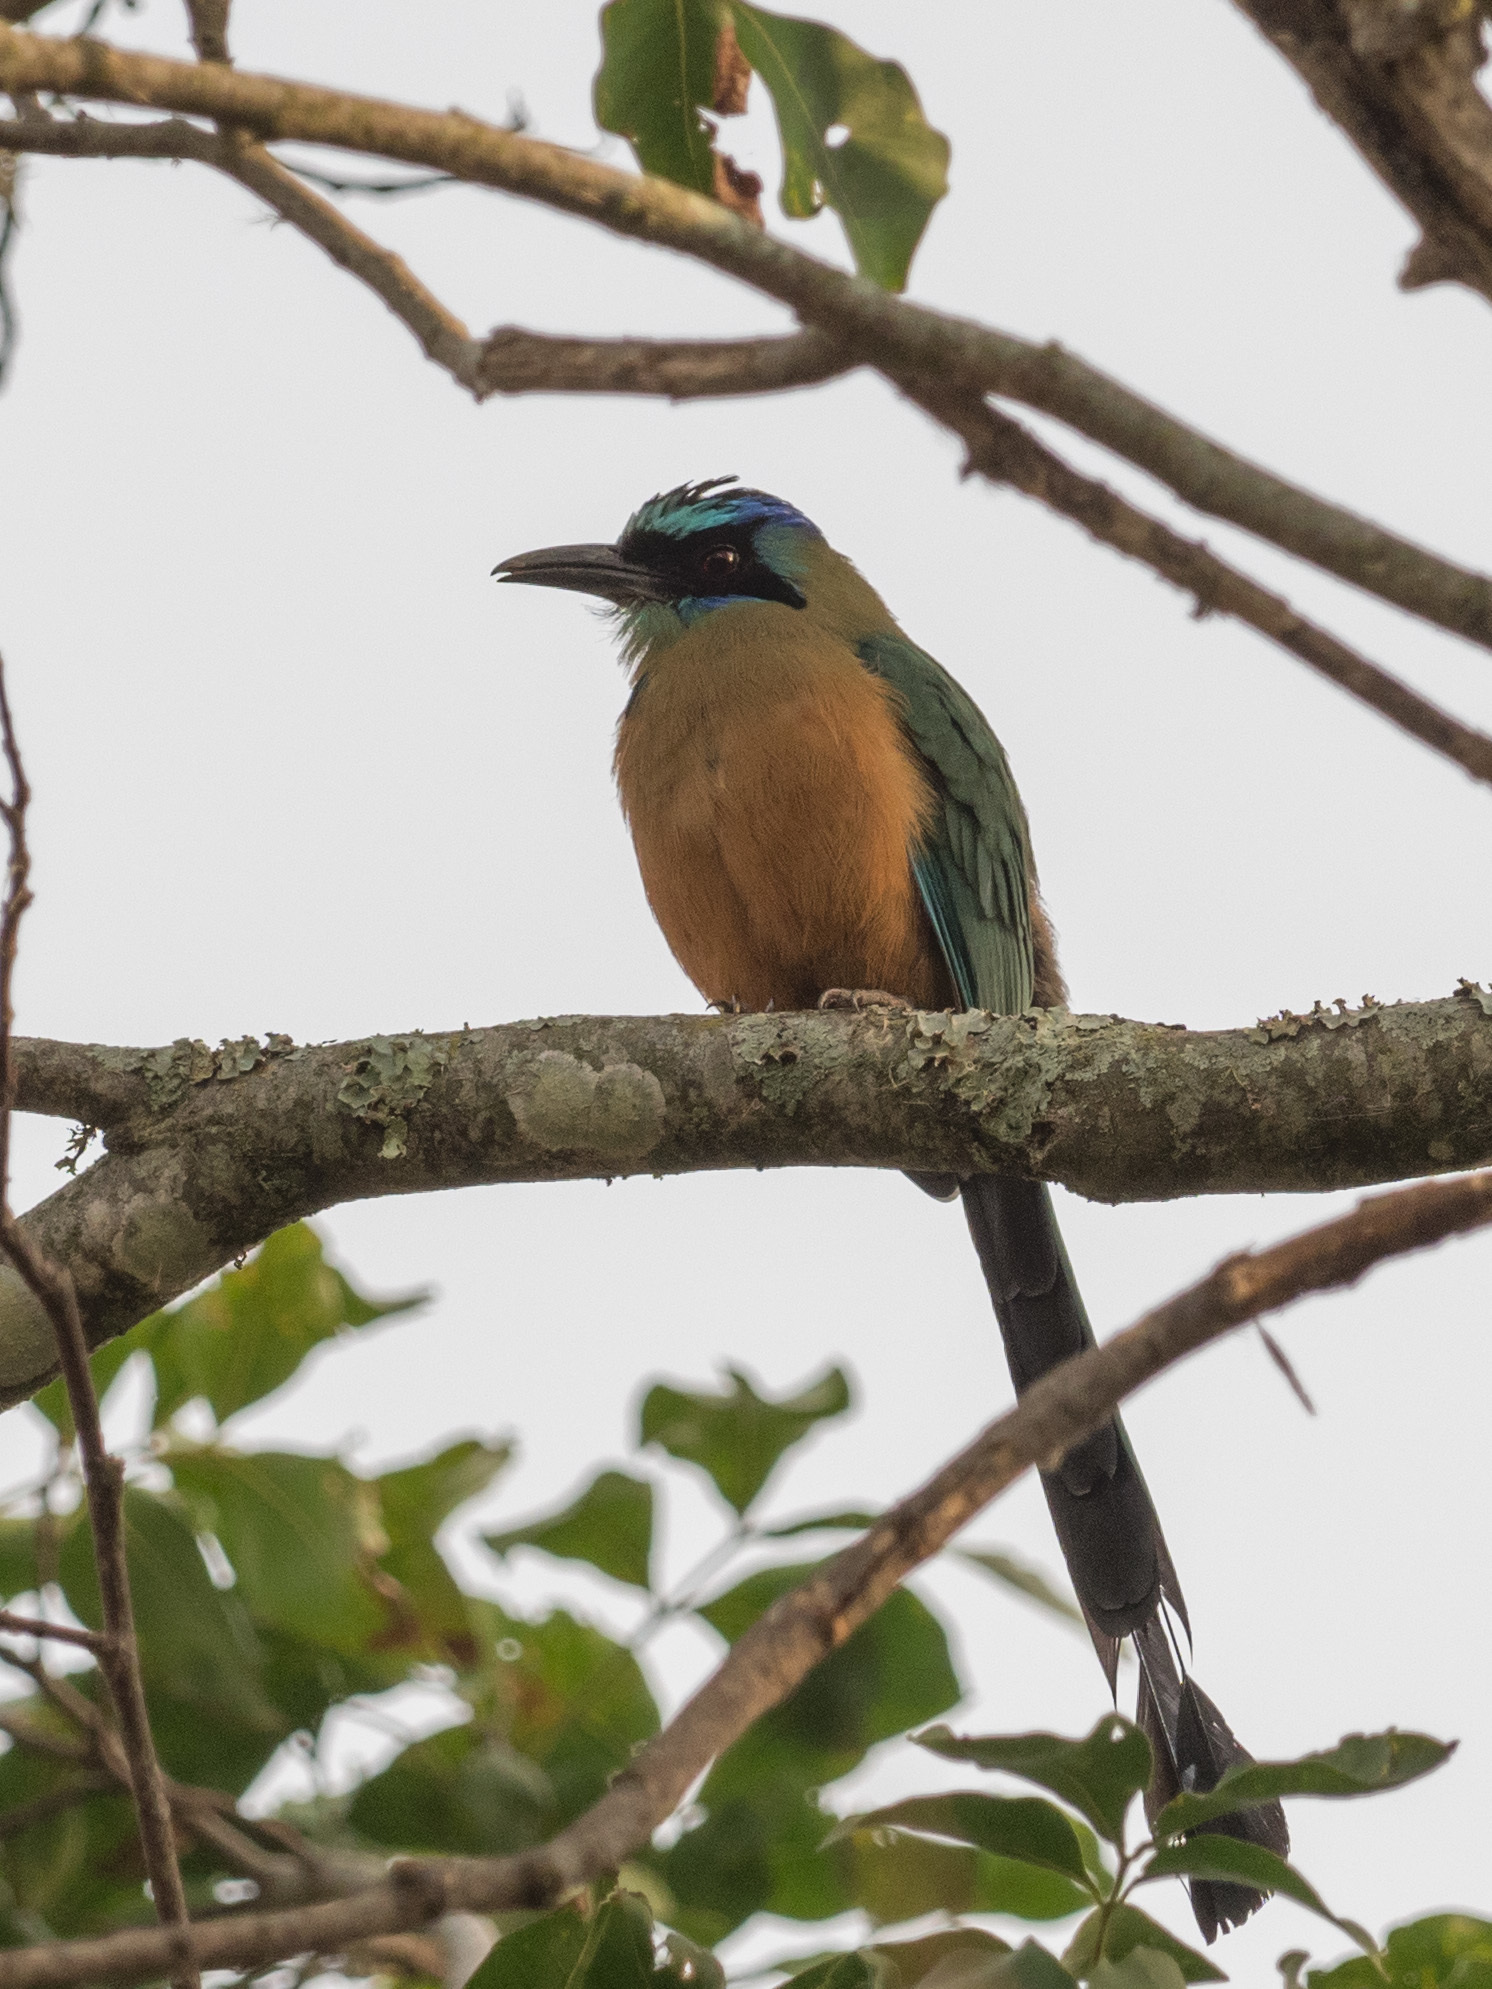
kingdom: Animalia
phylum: Chordata
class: Aves
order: Coraciiformes
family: Momotidae
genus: Momotus
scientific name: Momotus subrufescens
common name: Whooping motmot
